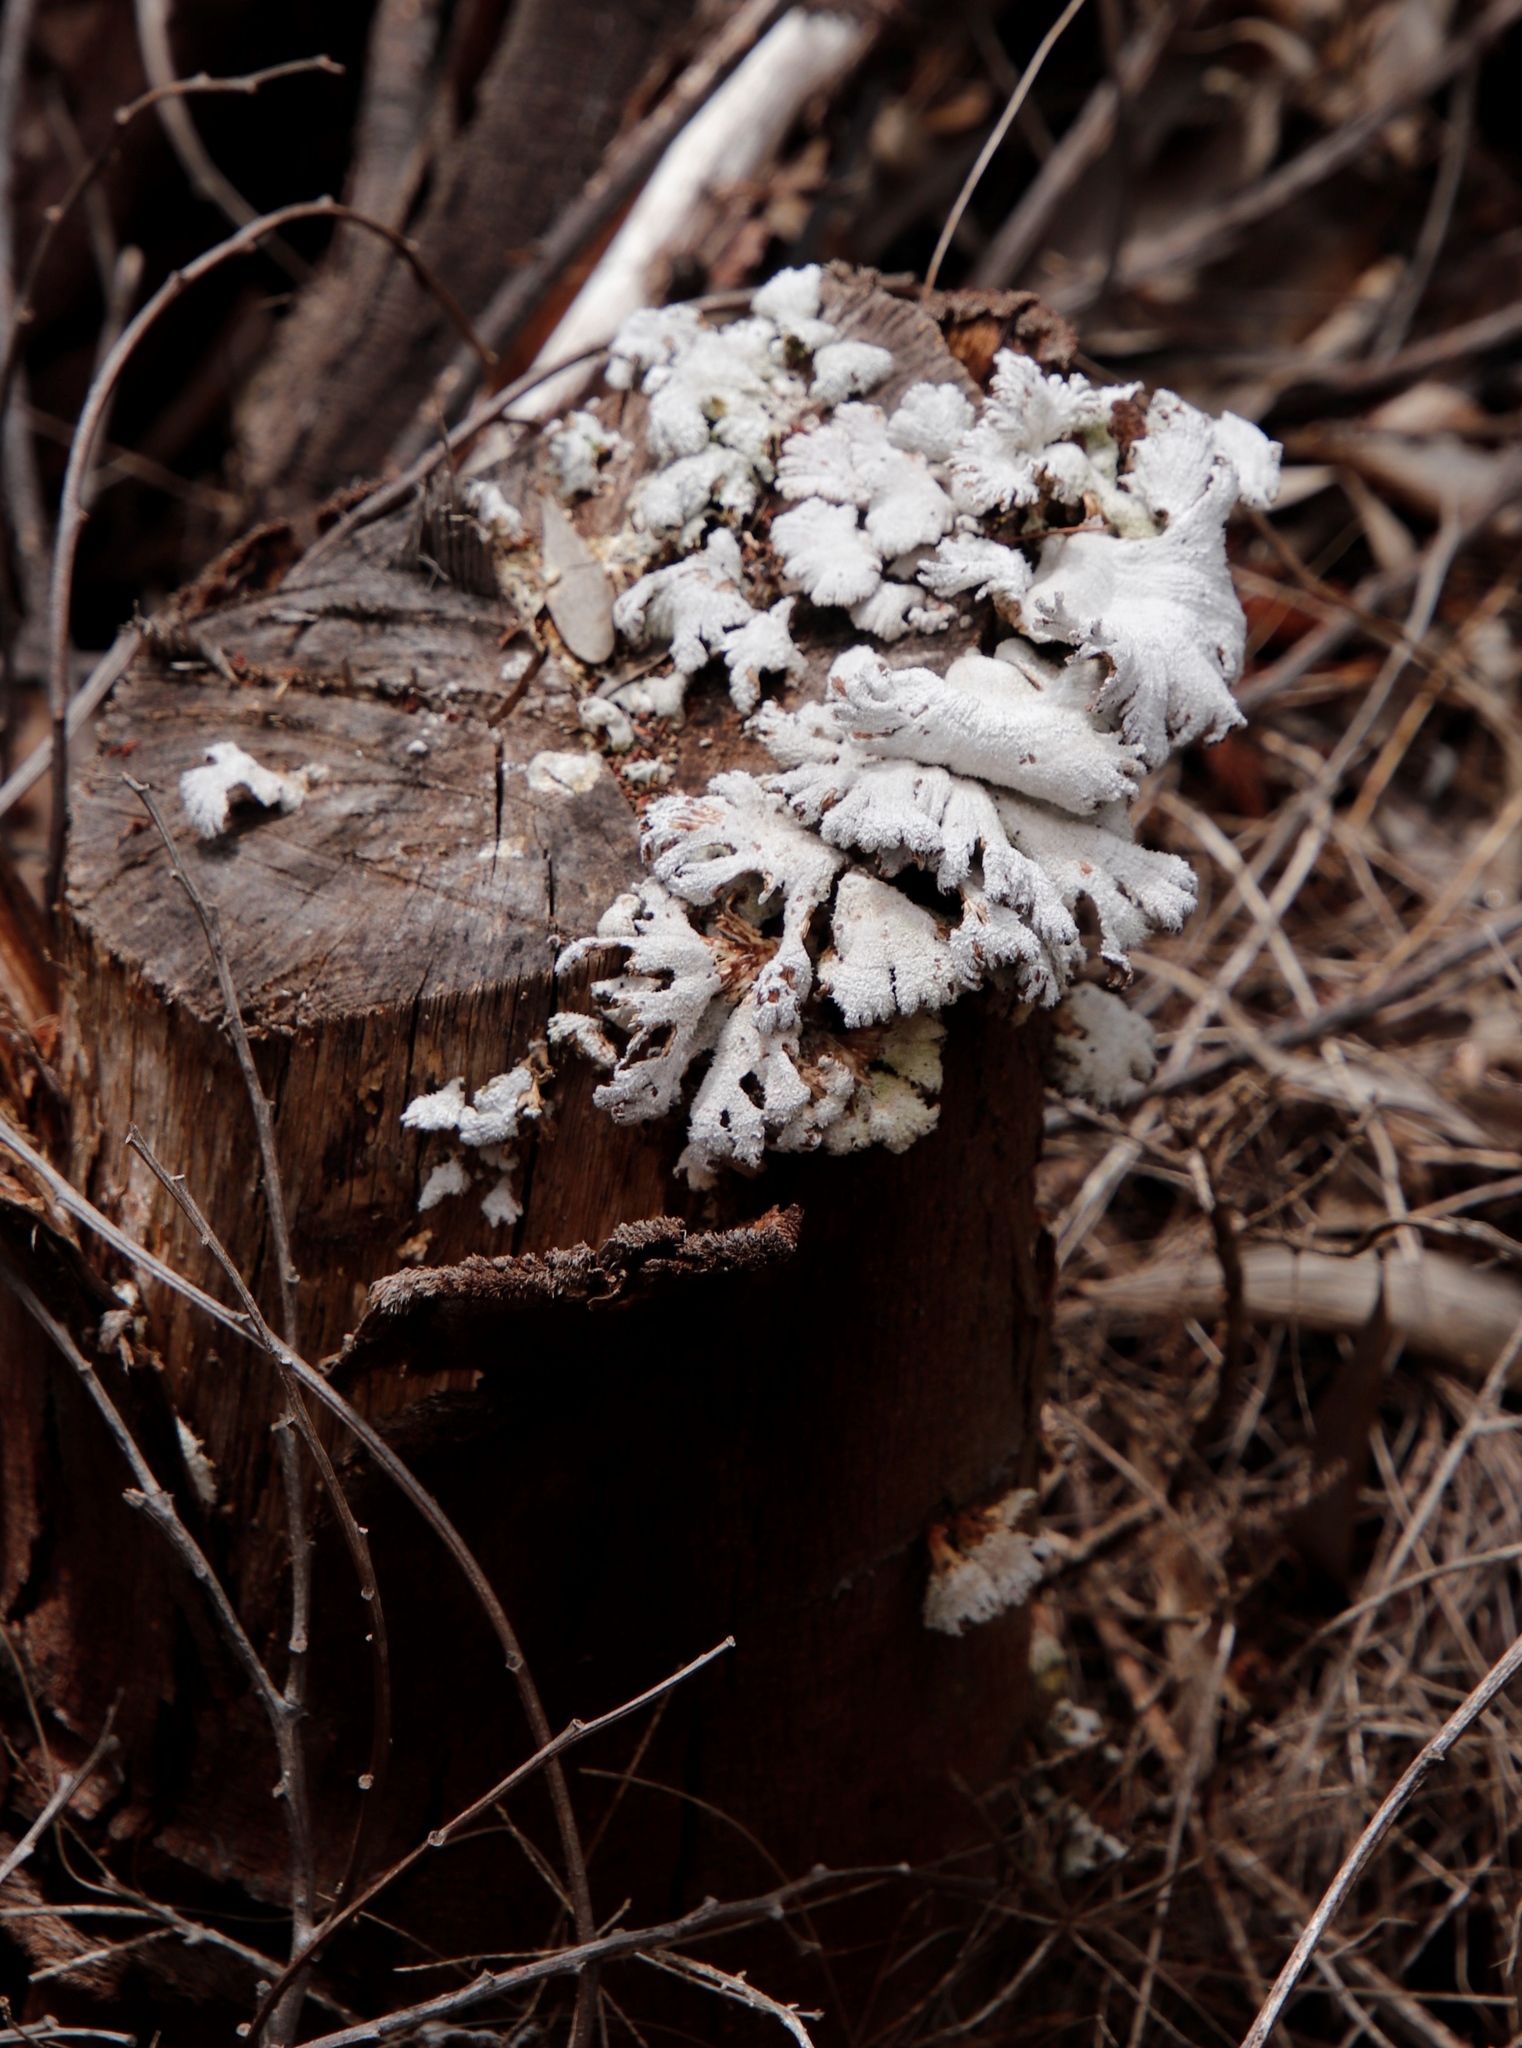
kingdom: Fungi
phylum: Basidiomycota
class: Agaricomycetes
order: Agaricales
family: Schizophyllaceae
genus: Schizophyllum
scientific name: Schizophyllum commune
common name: Common porecrust
